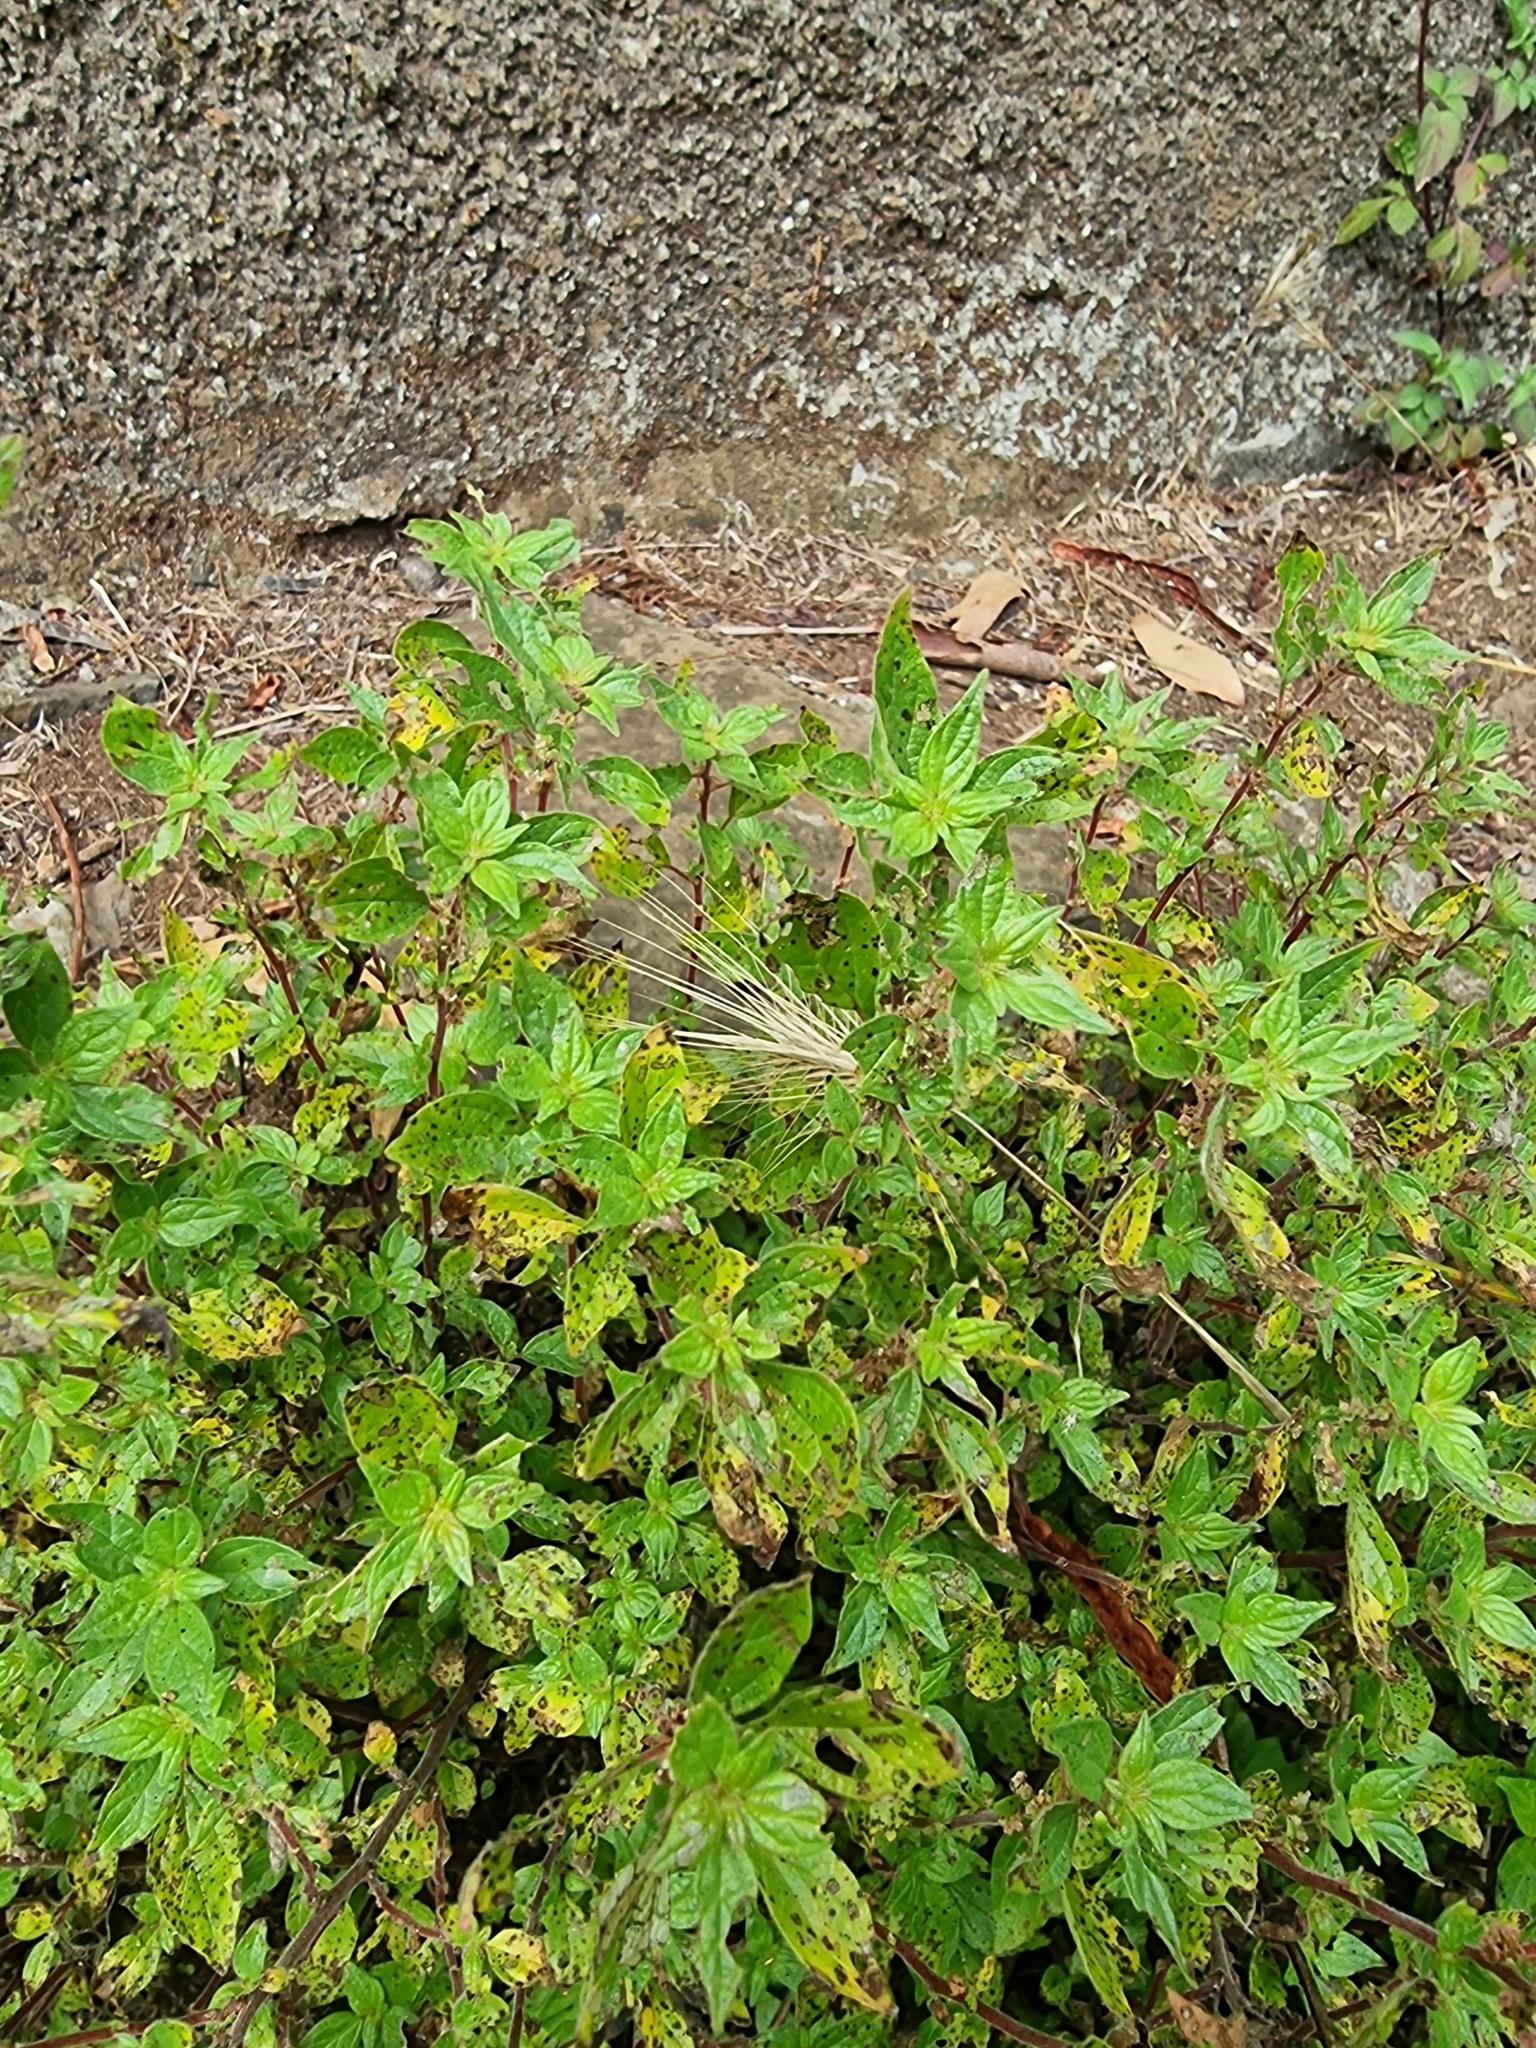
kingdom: Plantae
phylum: Tracheophyta
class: Magnoliopsida
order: Rosales
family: Urticaceae
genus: Parietaria
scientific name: Parietaria judaica
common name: Pellitory-of-the-wall
